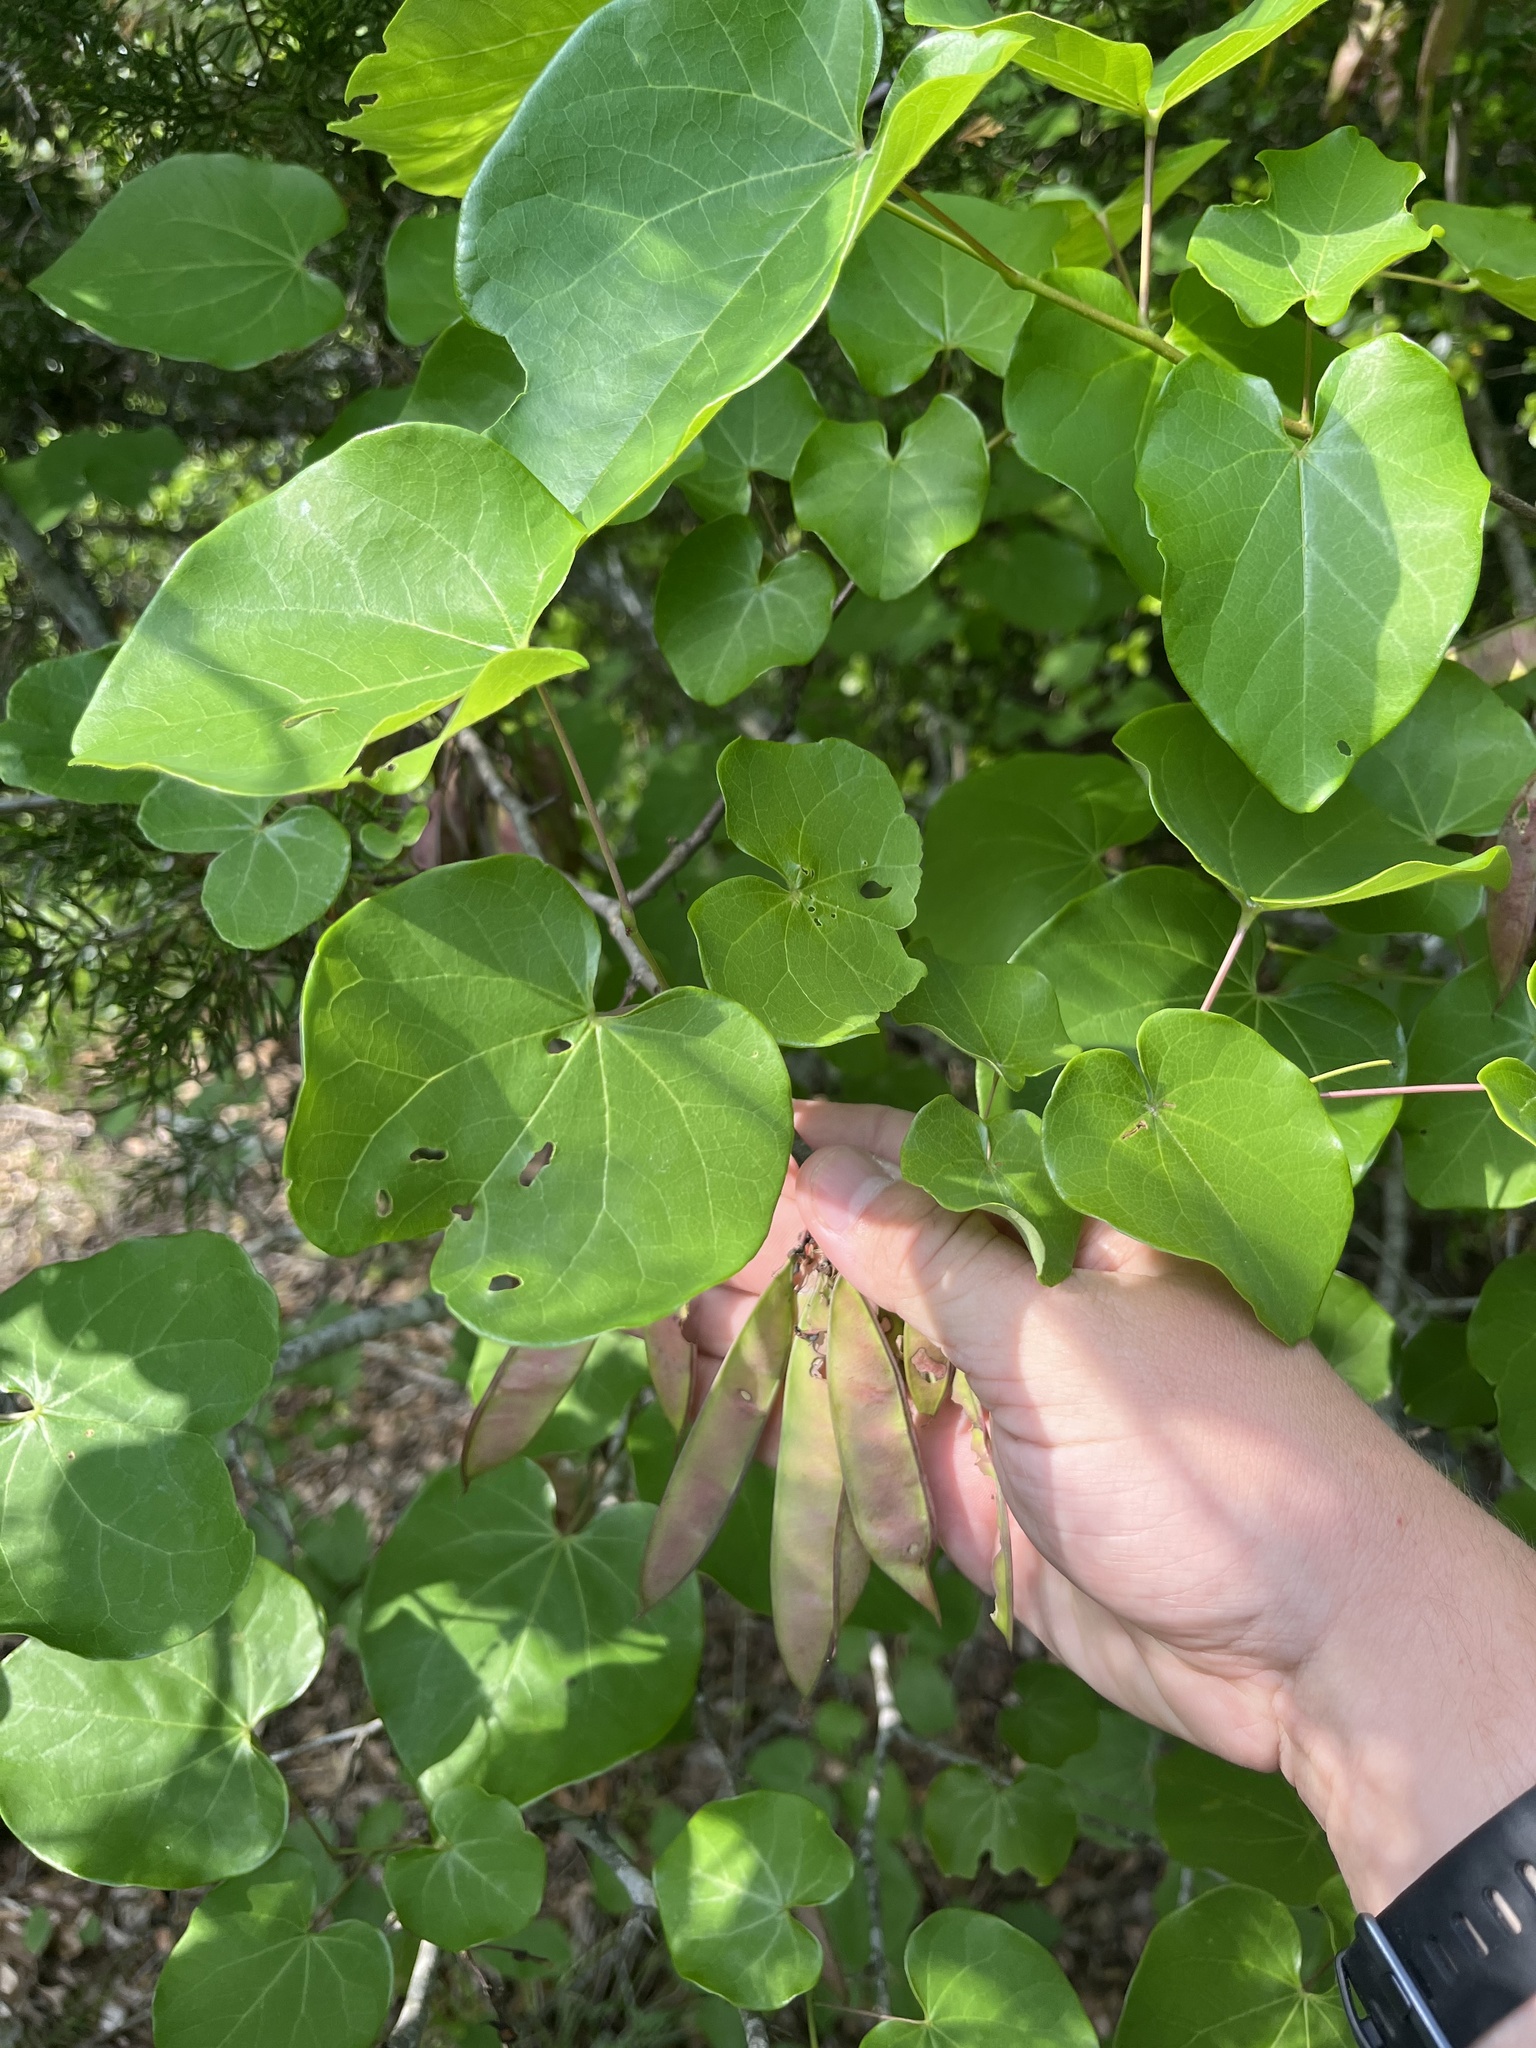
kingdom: Plantae
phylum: Tracheophyta
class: Magnoliopsida
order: Fabales
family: Fabaceae
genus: Cercis
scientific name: Cercis canadensis
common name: Eastern redbud
